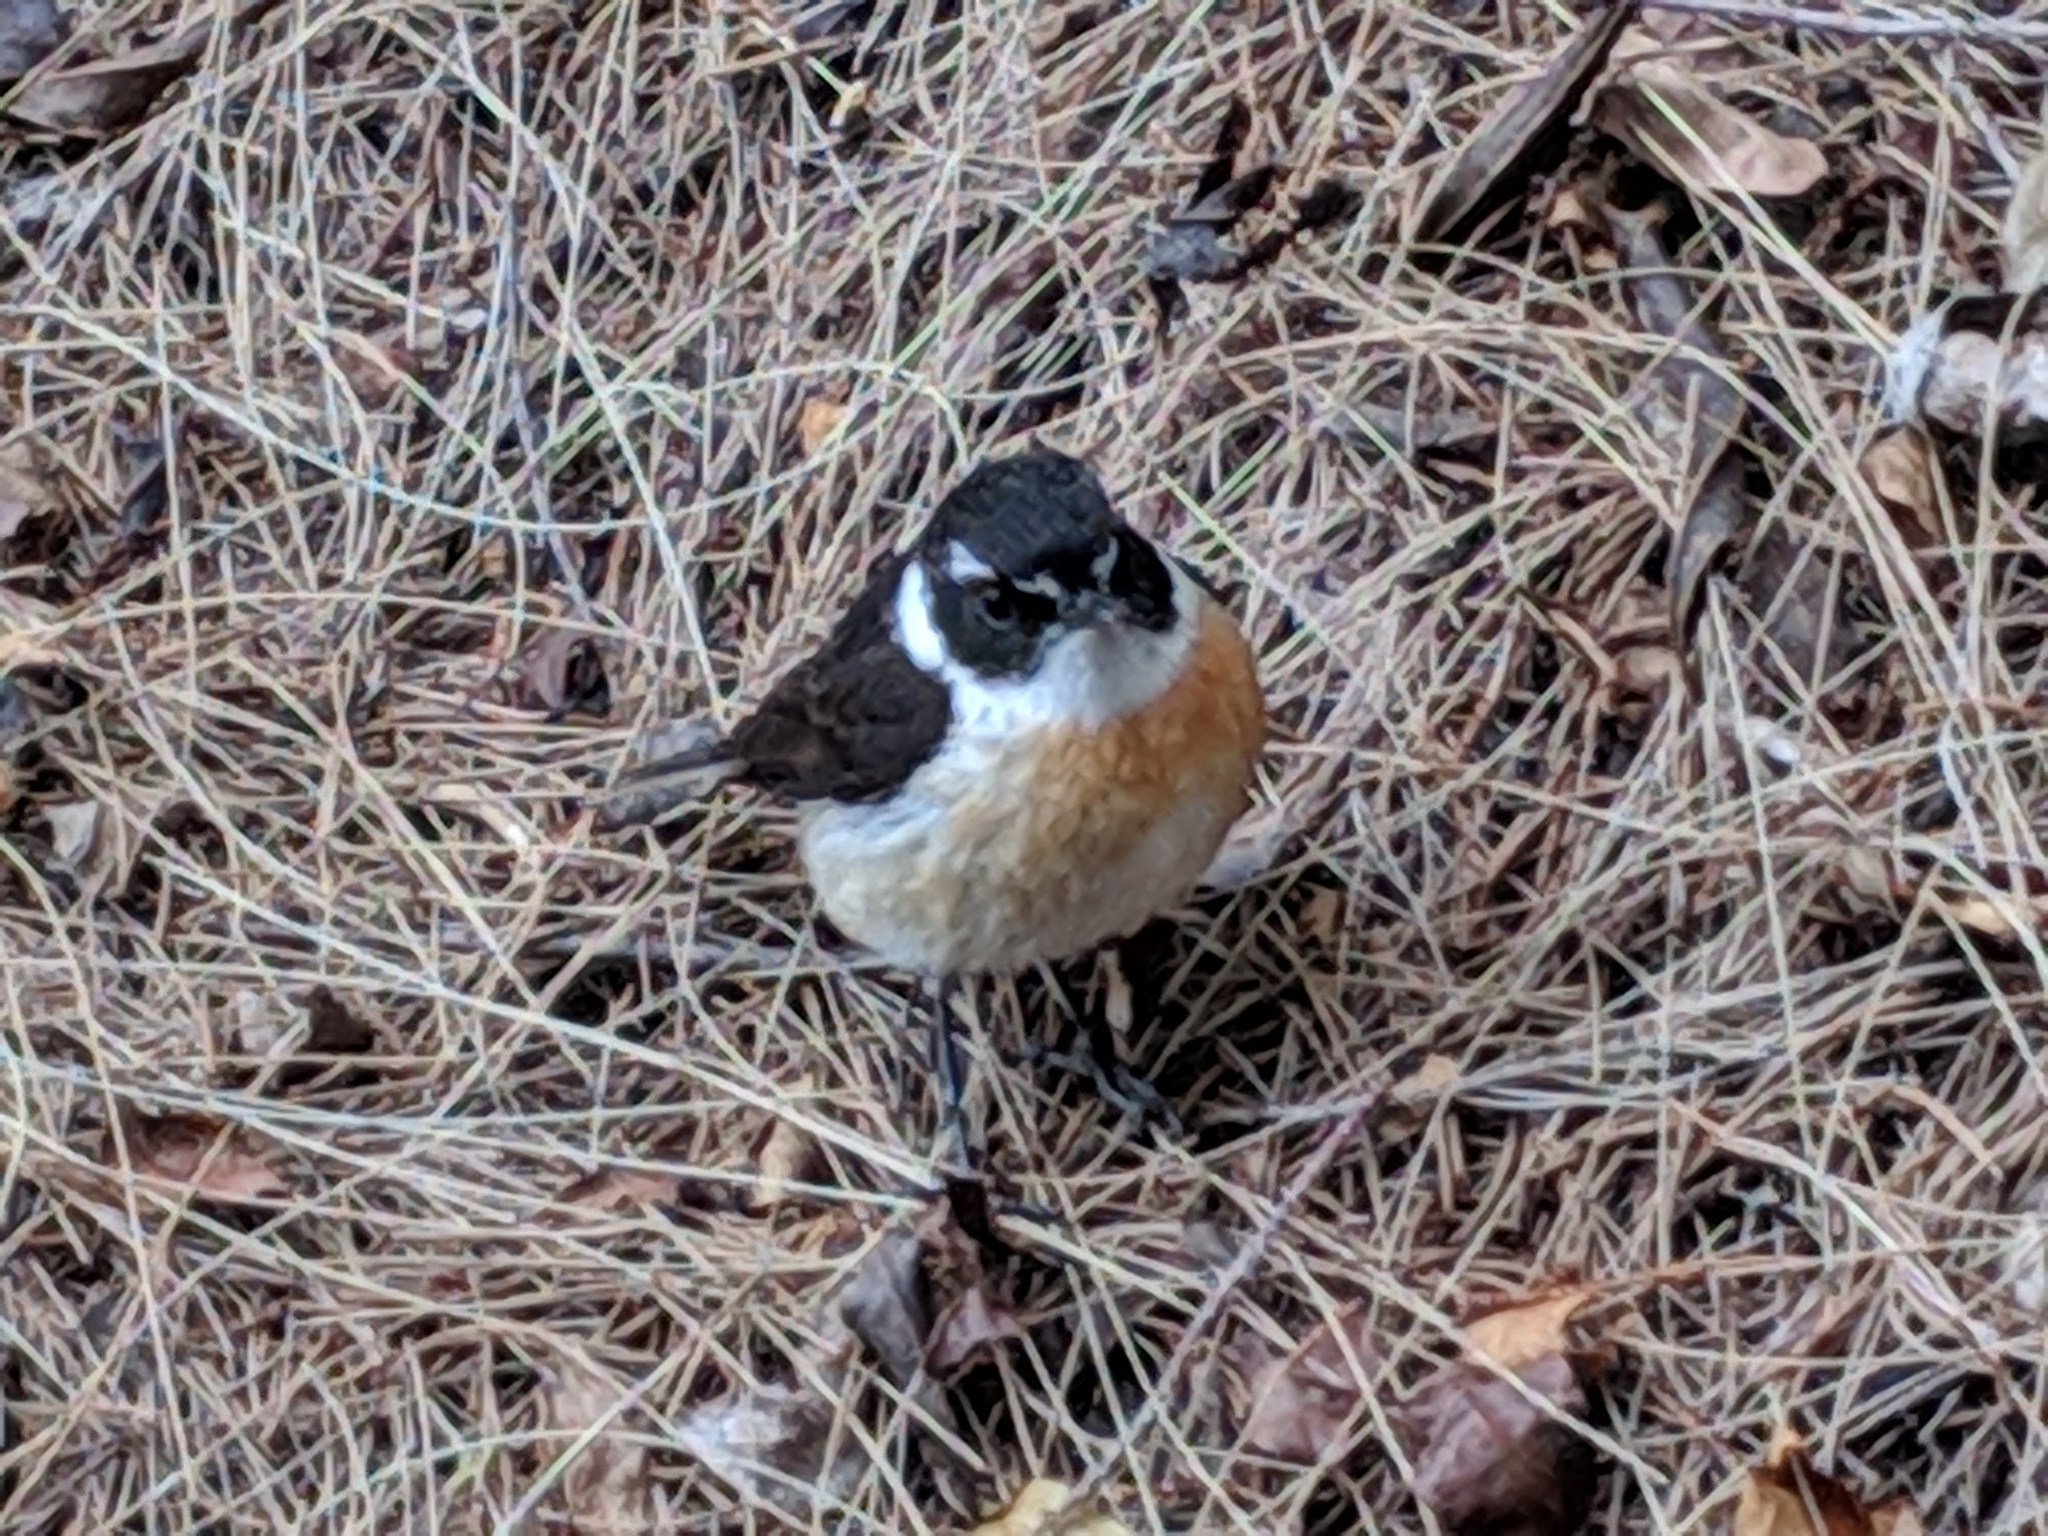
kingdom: Animalia
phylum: Chordata
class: Aves
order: Passeriformes
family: Muscicapidae
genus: Saxicola
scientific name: Saxicola tectes
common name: Reunion stonechat
